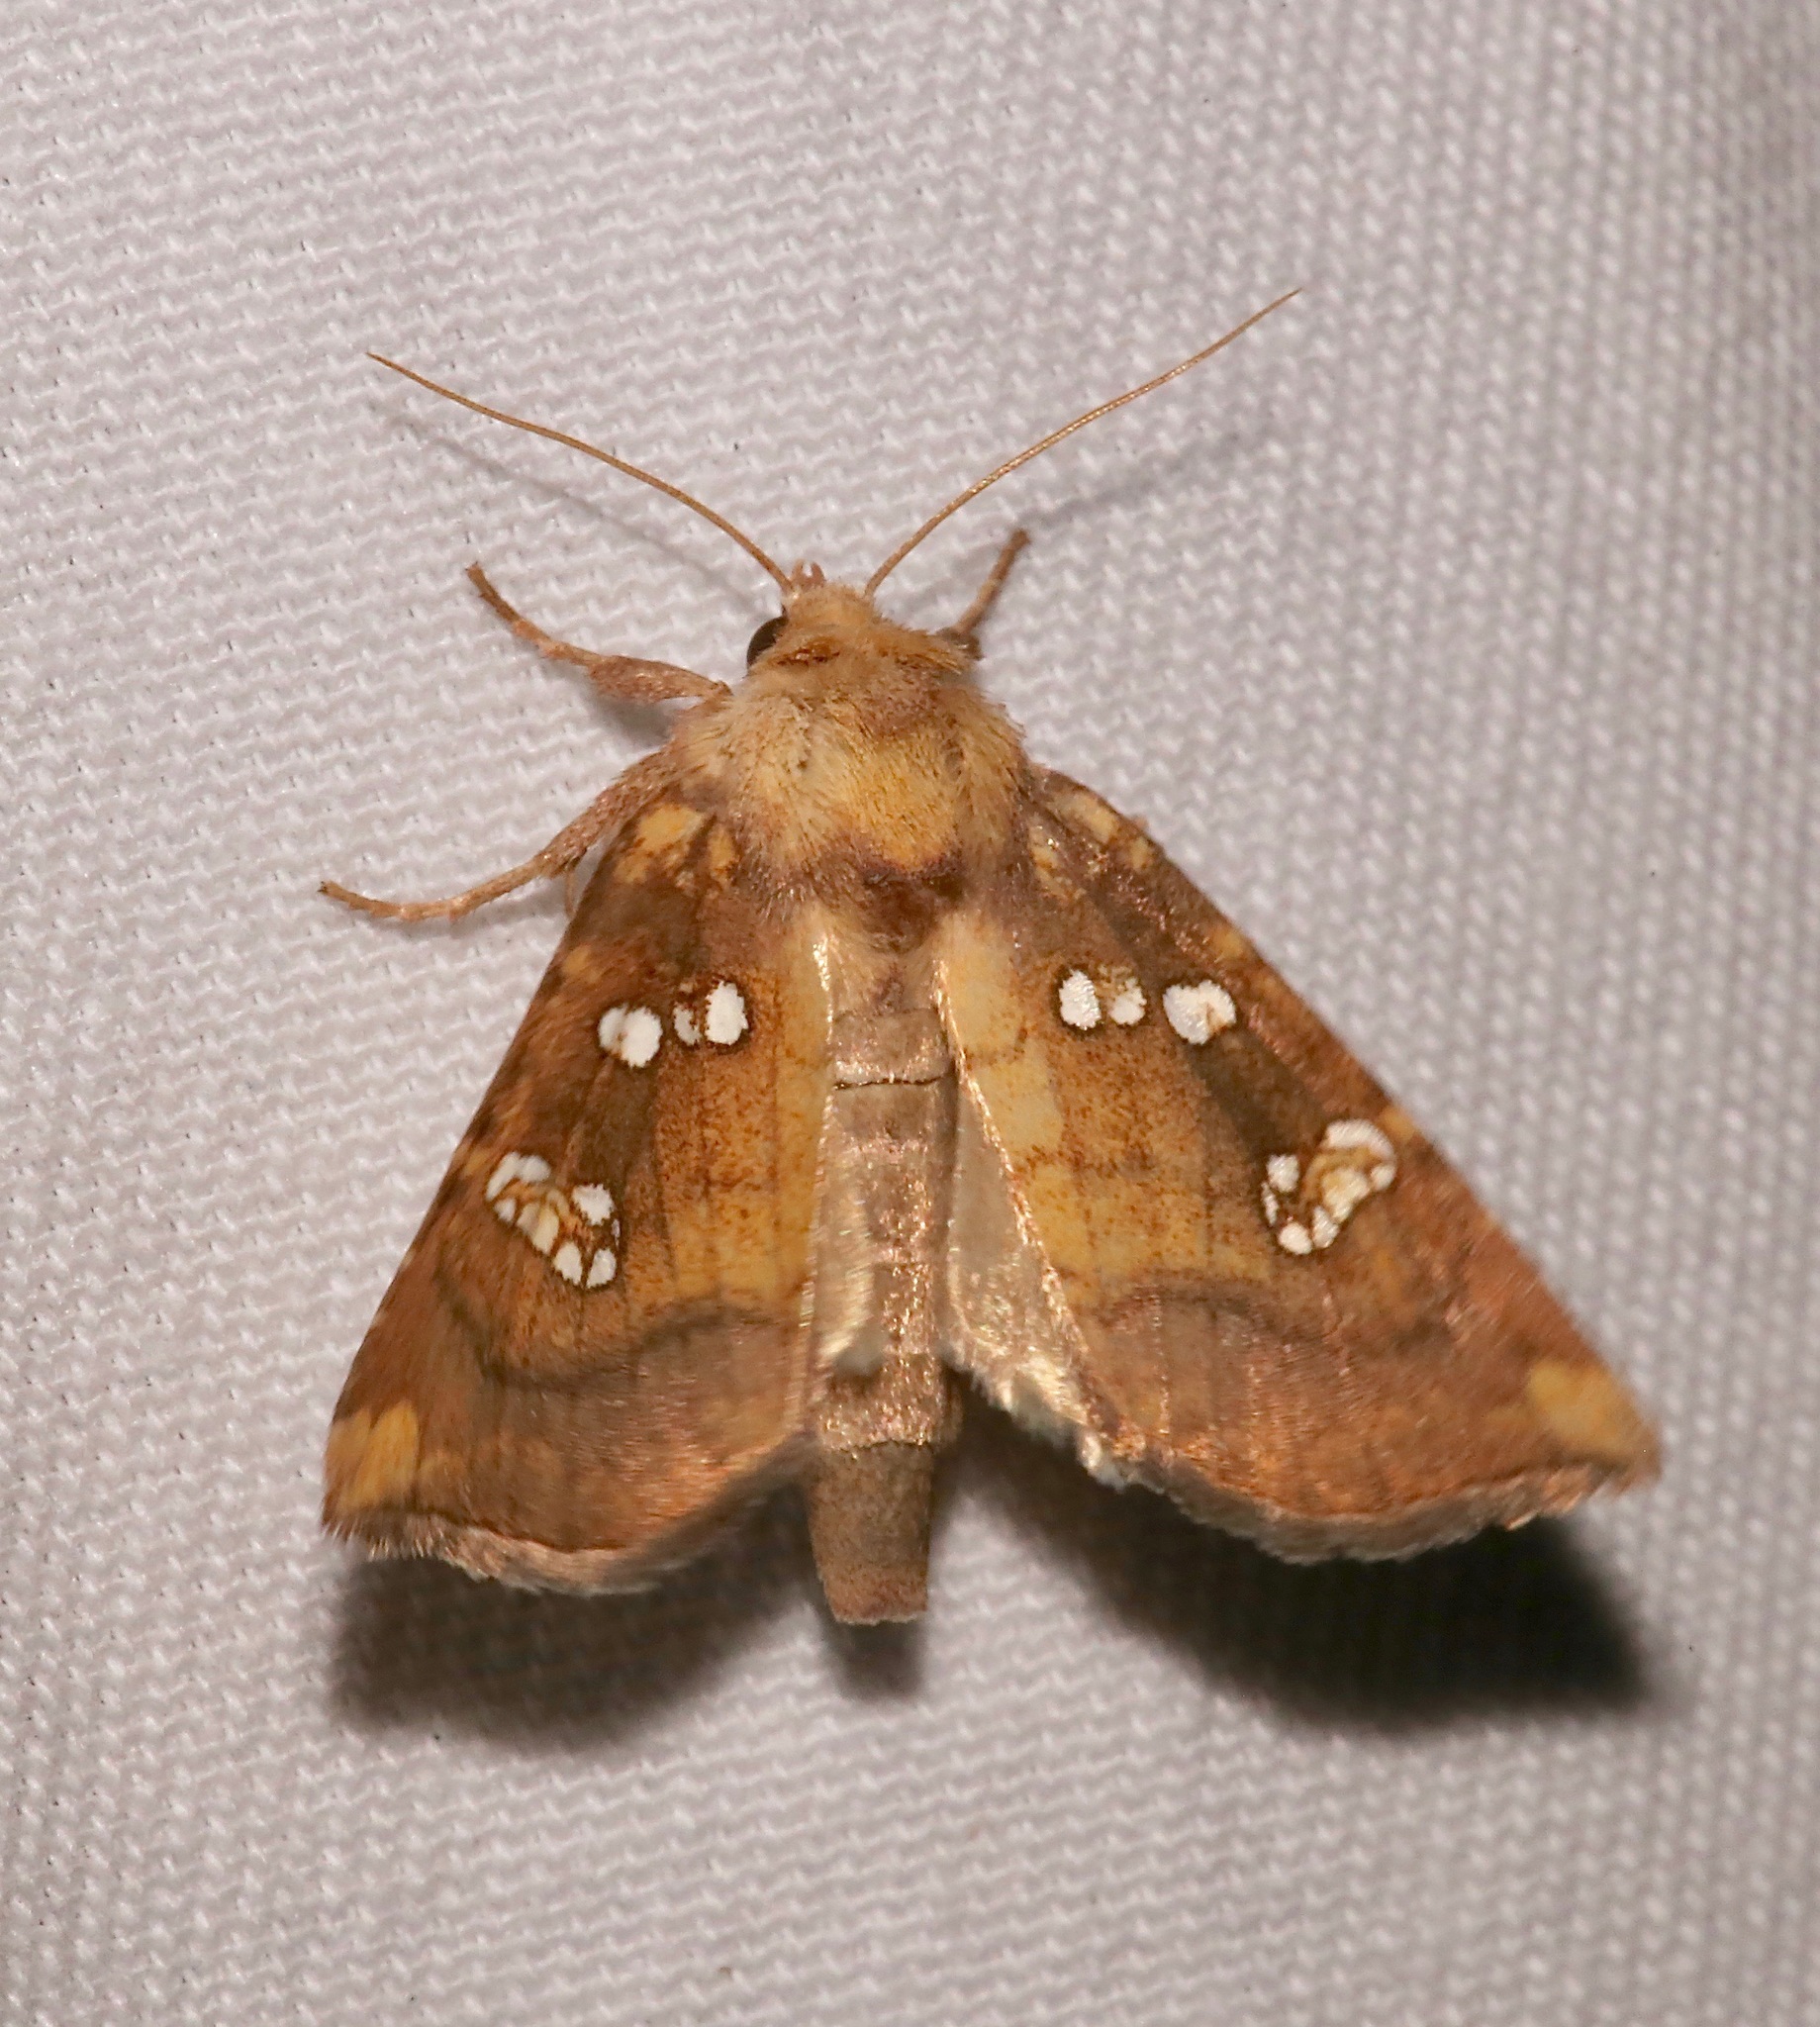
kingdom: Animalia
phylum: Arthropoda
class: Insecta
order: Lepidoptera
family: Noctuidae
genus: Papaipema
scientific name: Papaipema baptisiae
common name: Wild indigo borer moth
